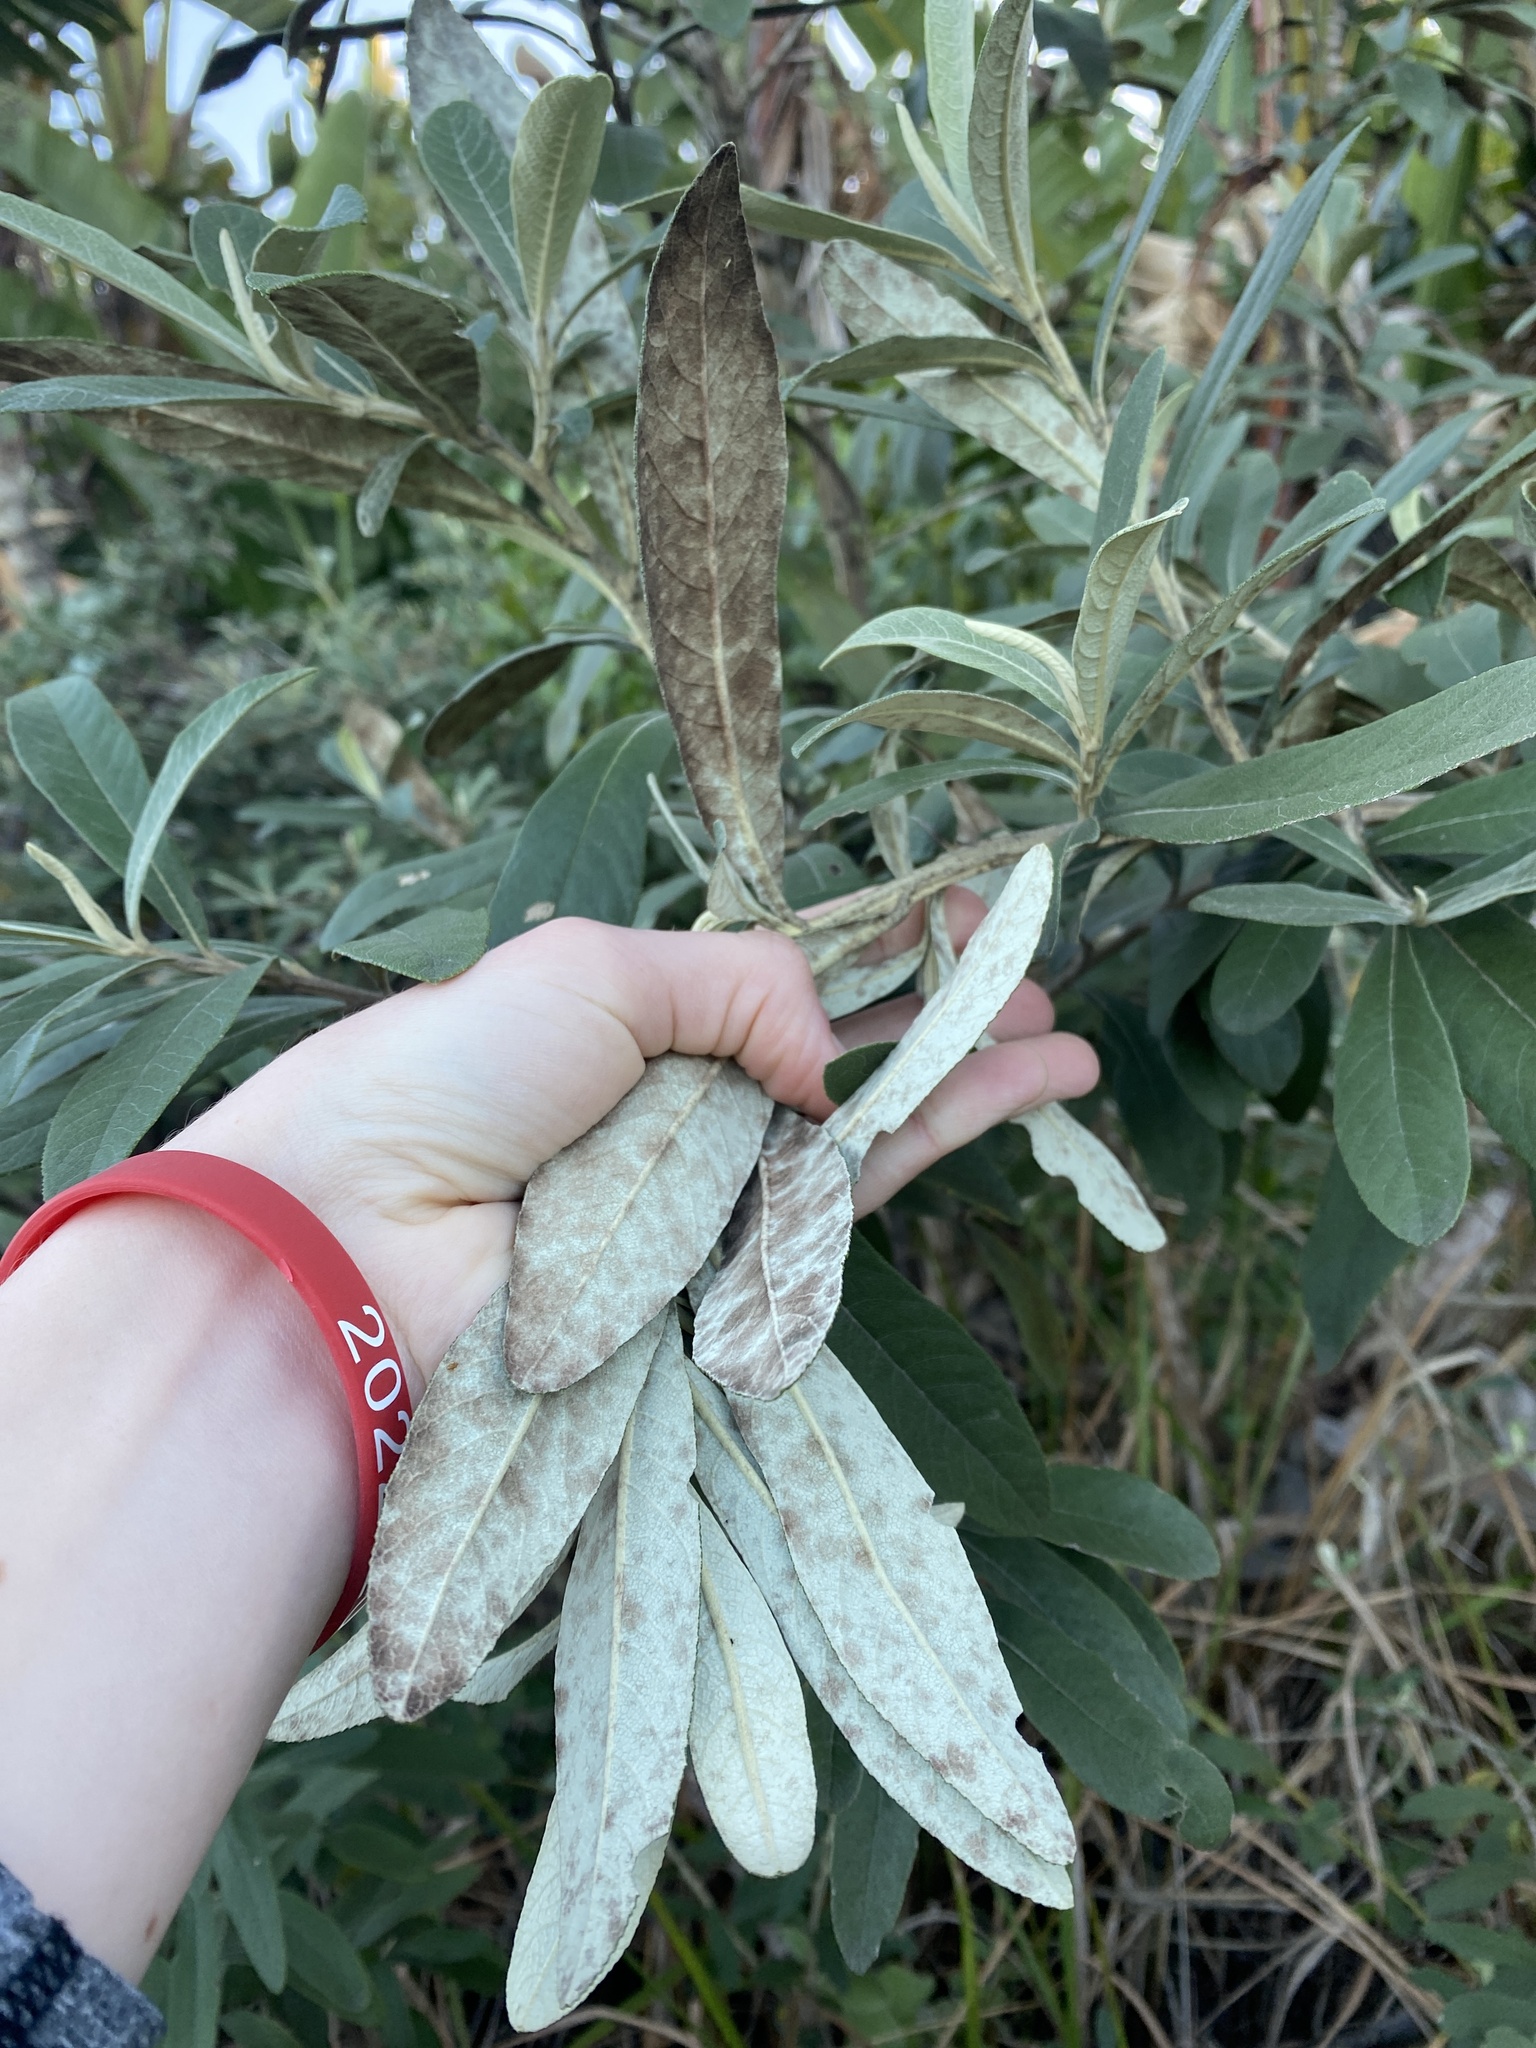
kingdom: Plantae
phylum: Tracheophyta
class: Magnoliopsida
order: Asterales
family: Asteraceae
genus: Tarchonanthus
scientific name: Tarchonanthus parvicapitulatus
